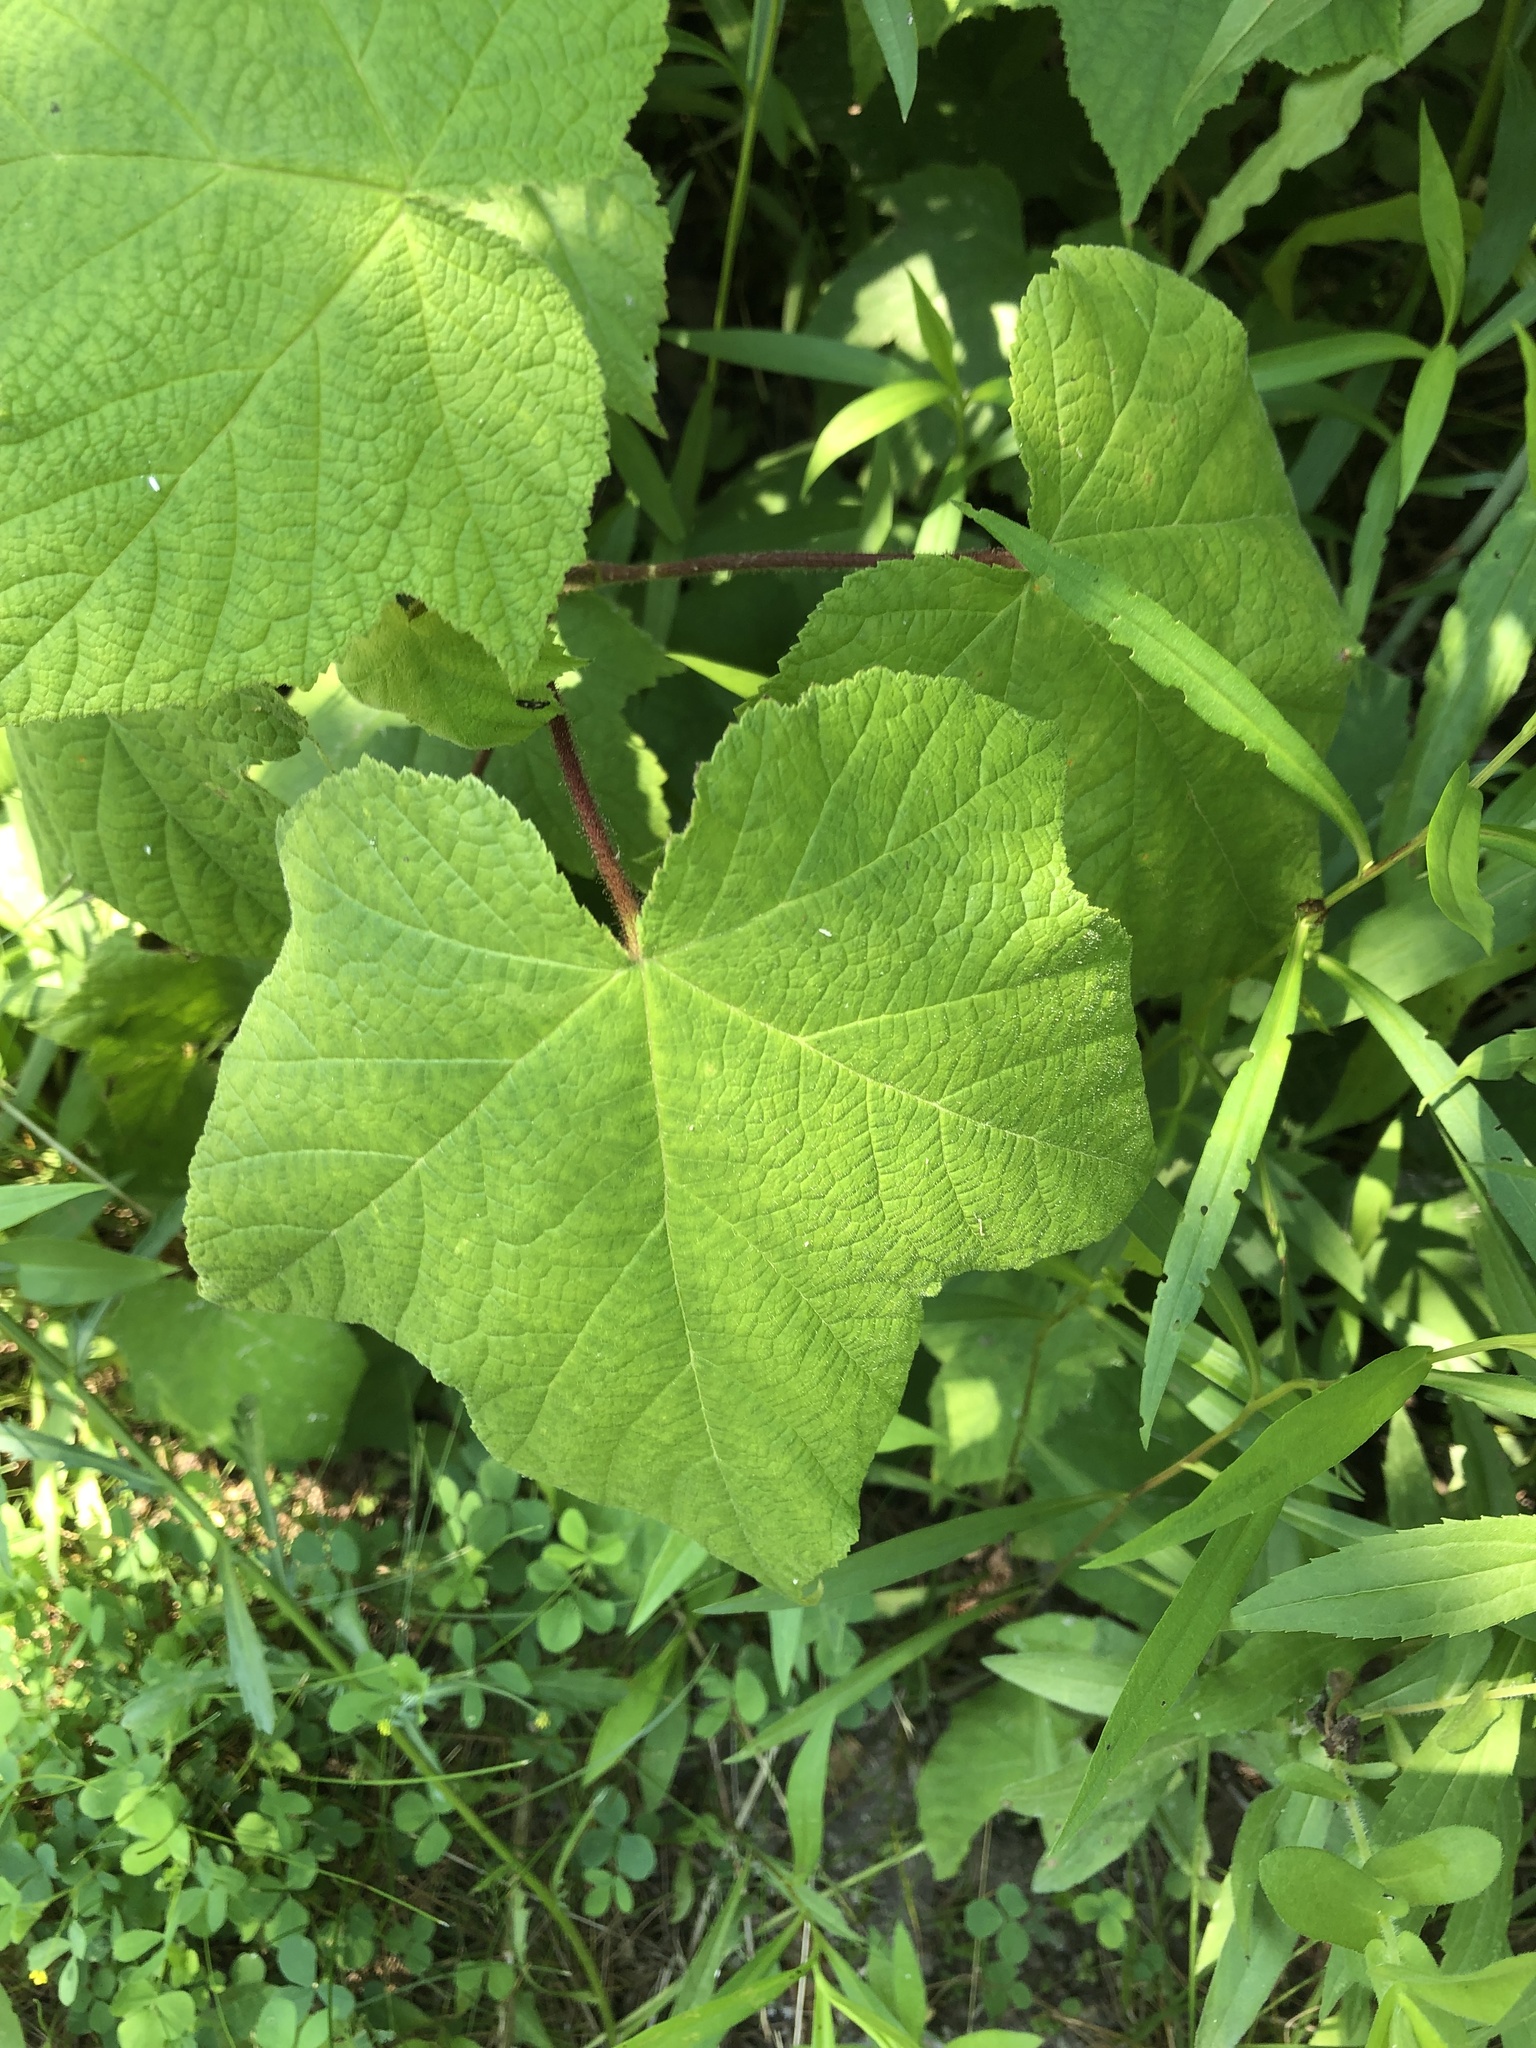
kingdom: Plantae
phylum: Tracheophyta
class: Magnoliopsida
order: Rosales
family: Rosaceae
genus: Rubus
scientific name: Rubus odoratus
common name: Purple-flowered raspberry
